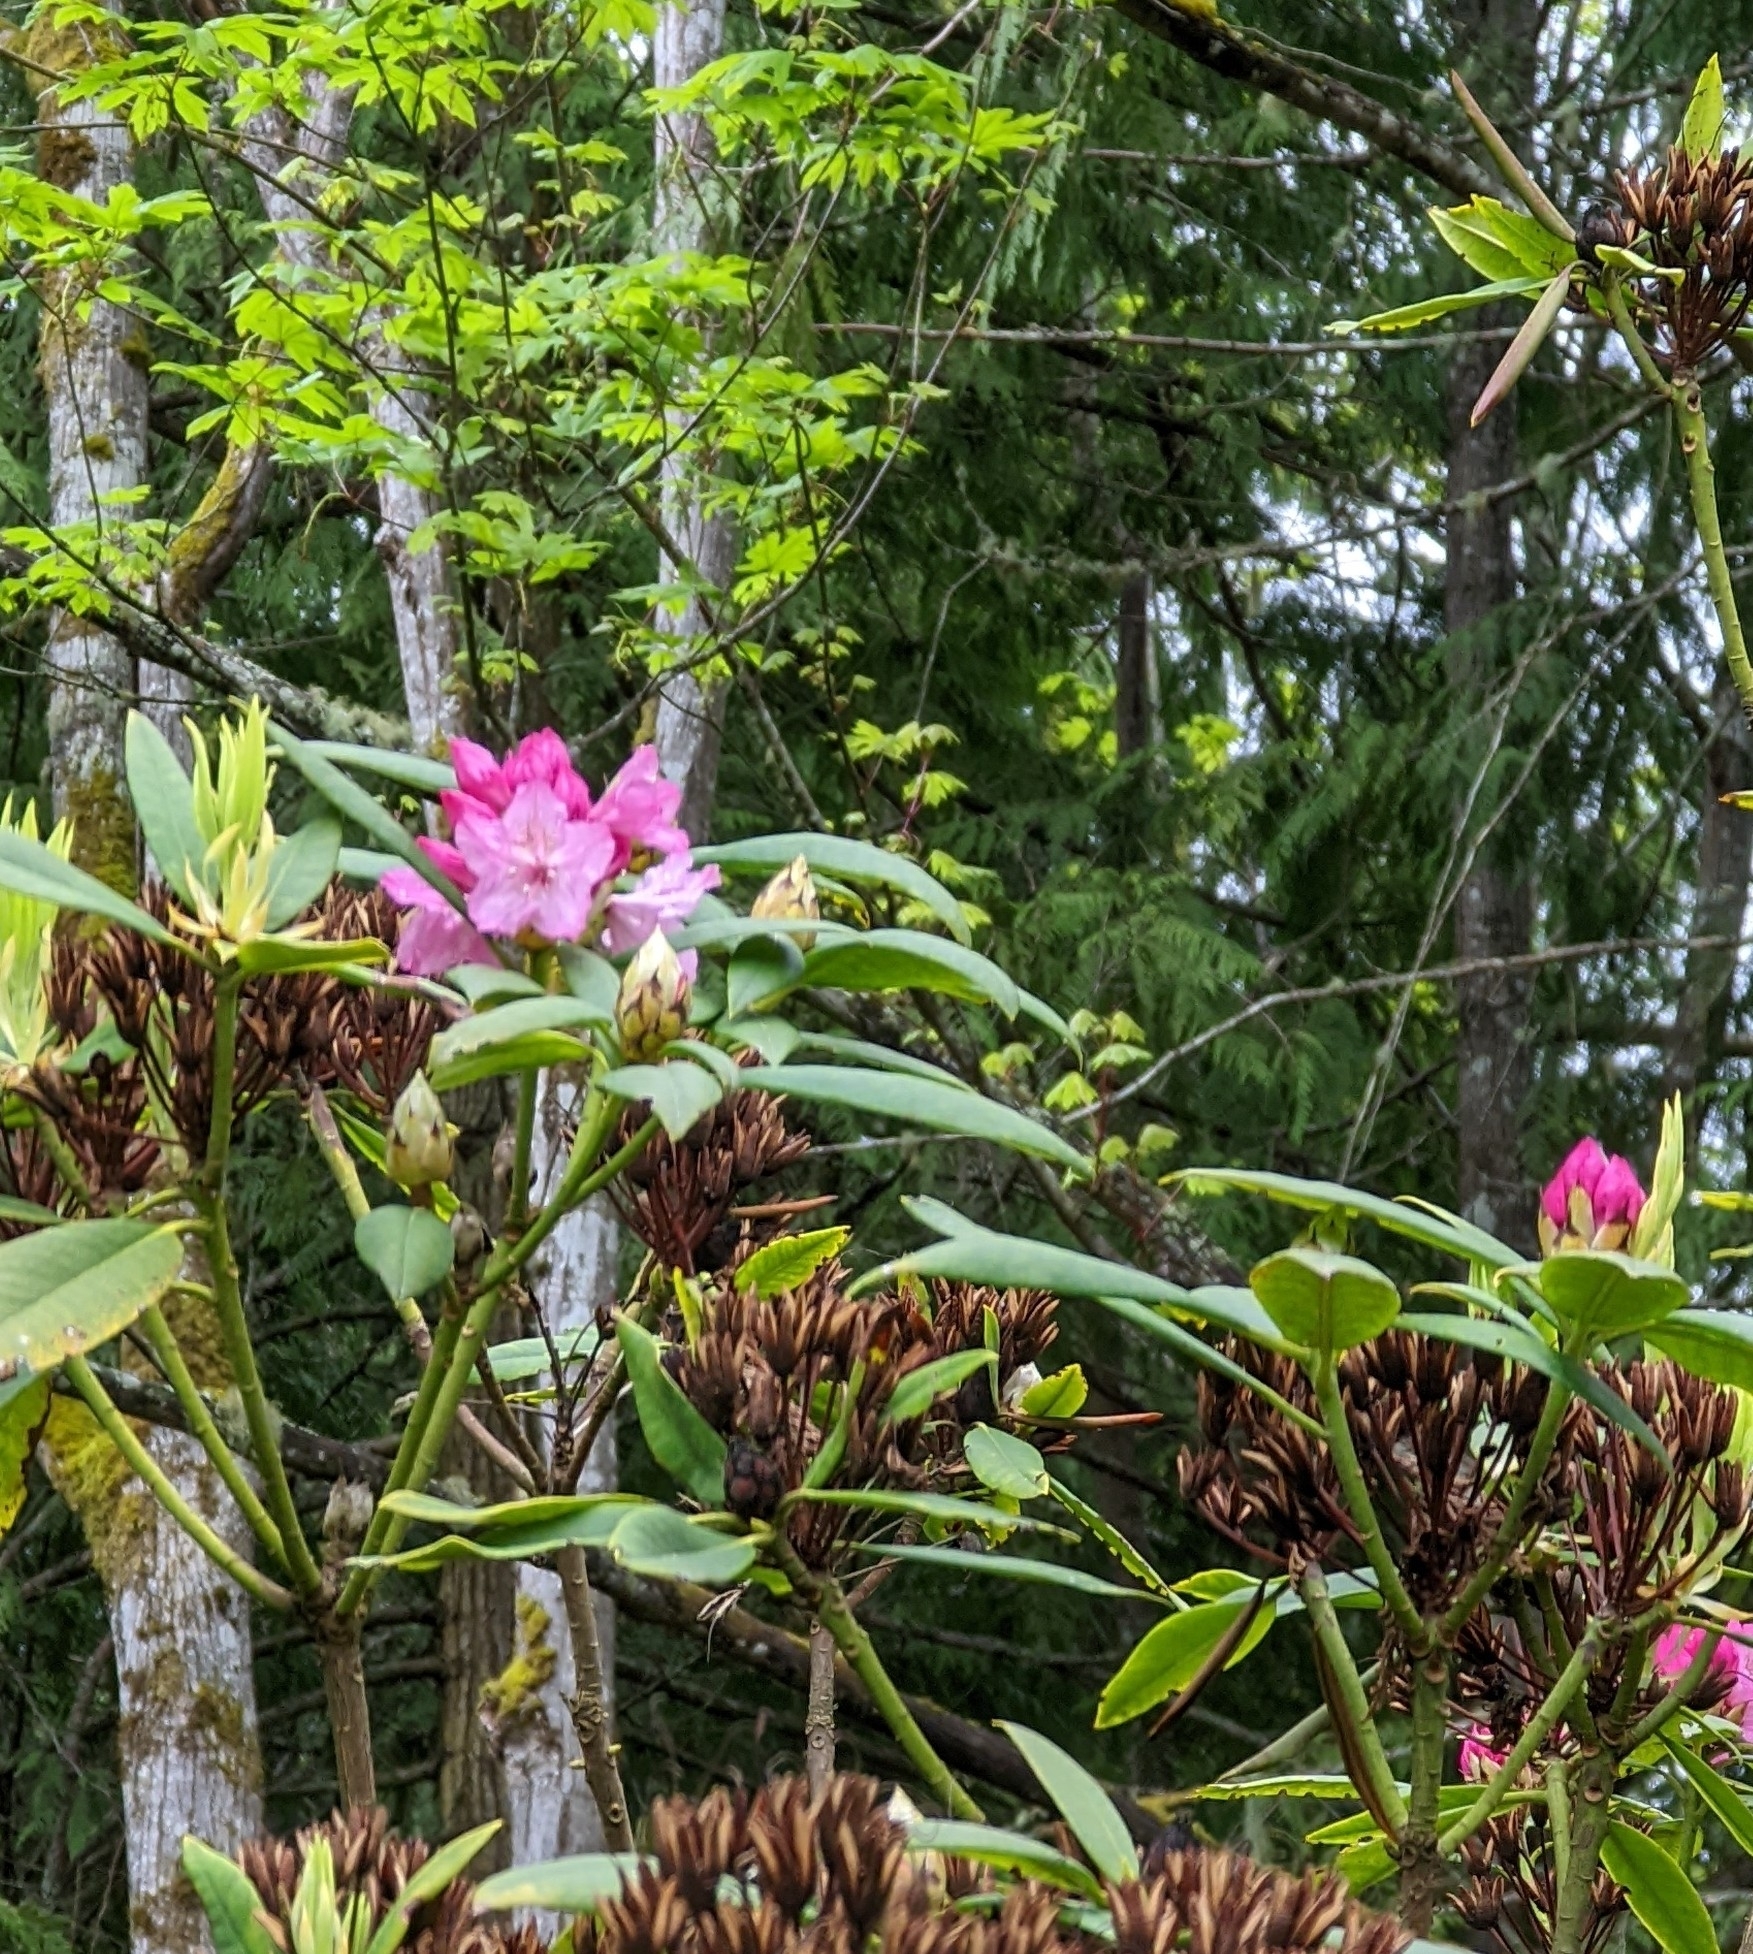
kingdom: Plantae
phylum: Tracheophyta
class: Magnoliopsida
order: Ericales
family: Ericaceae
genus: Rhododendron
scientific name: Rhododendron macrophyllum
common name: California rose bay
